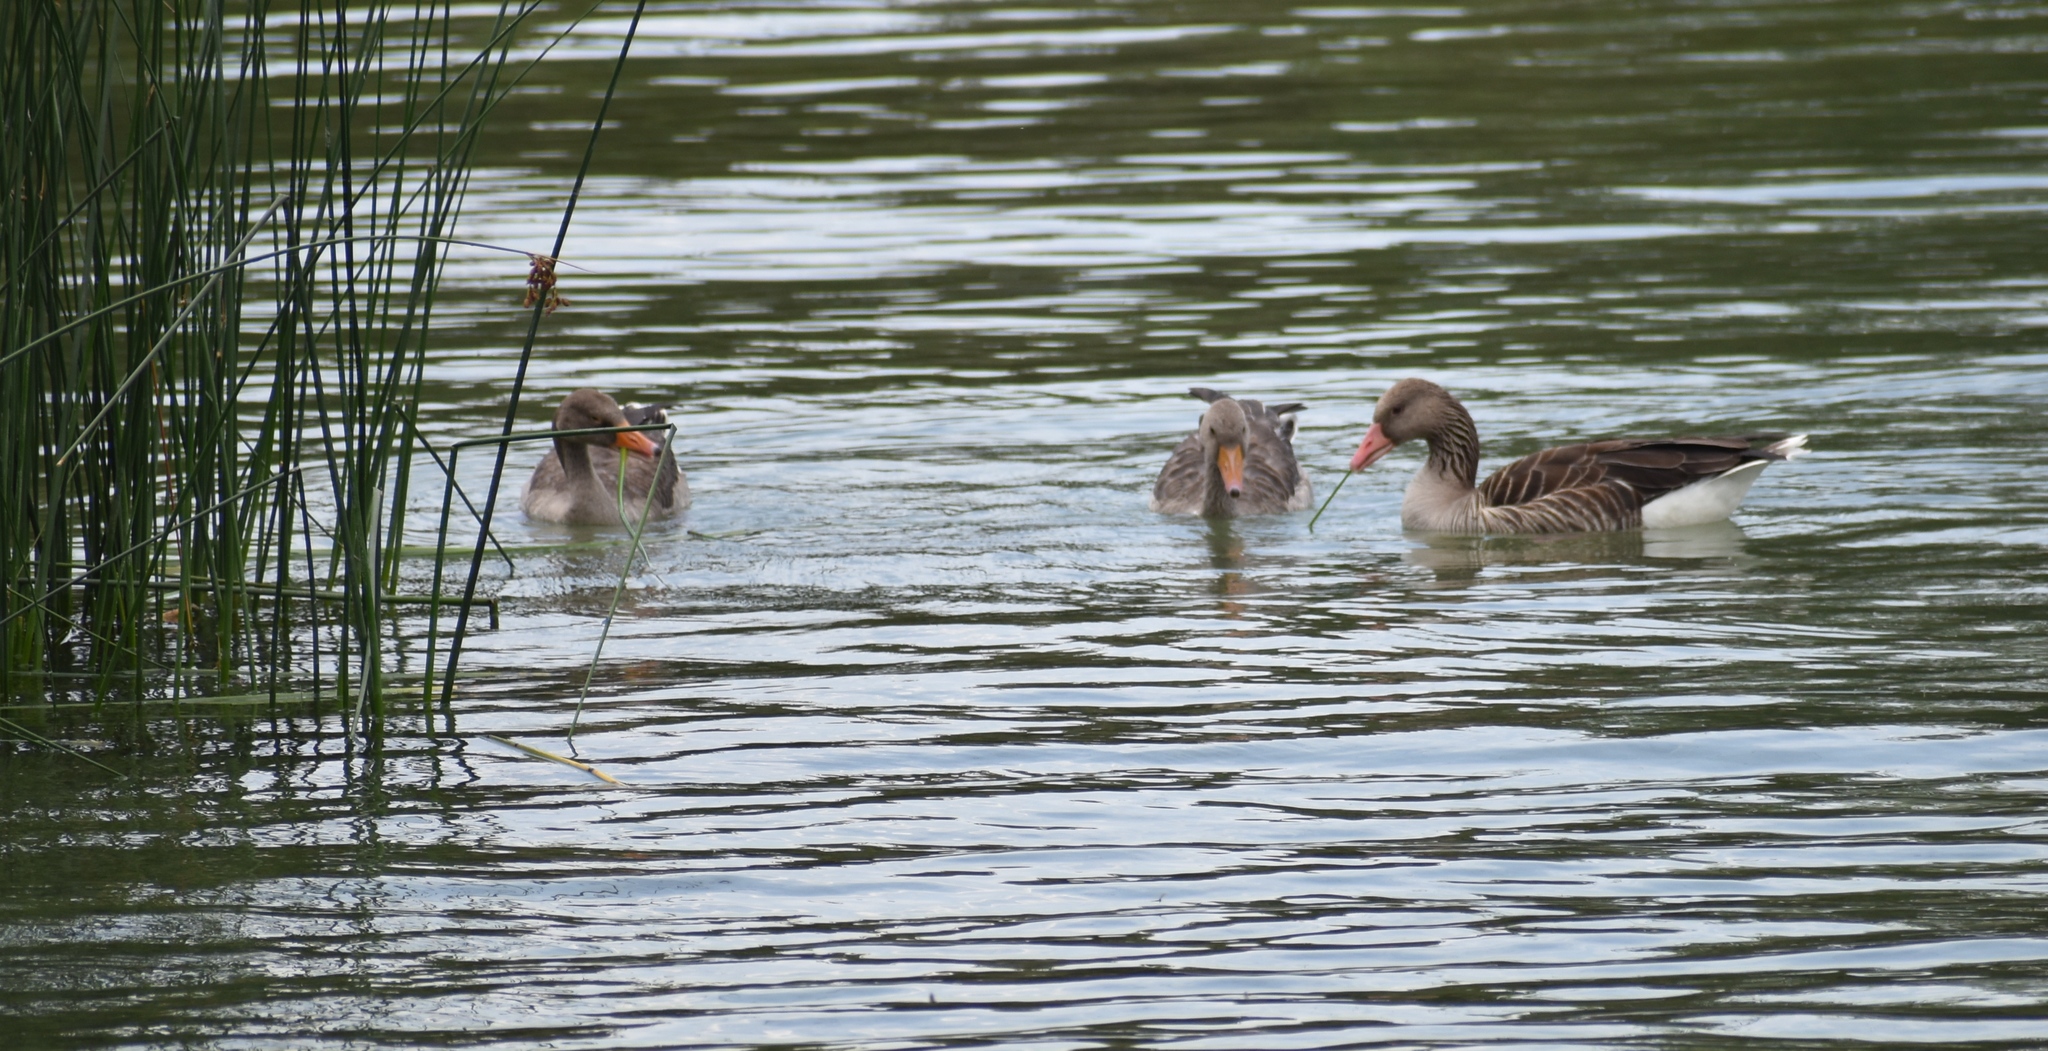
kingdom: Animalia
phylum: Chordata
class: Aves
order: Anseriformes
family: Anatidae
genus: Anser
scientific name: Anser anser
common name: Greylag goose
